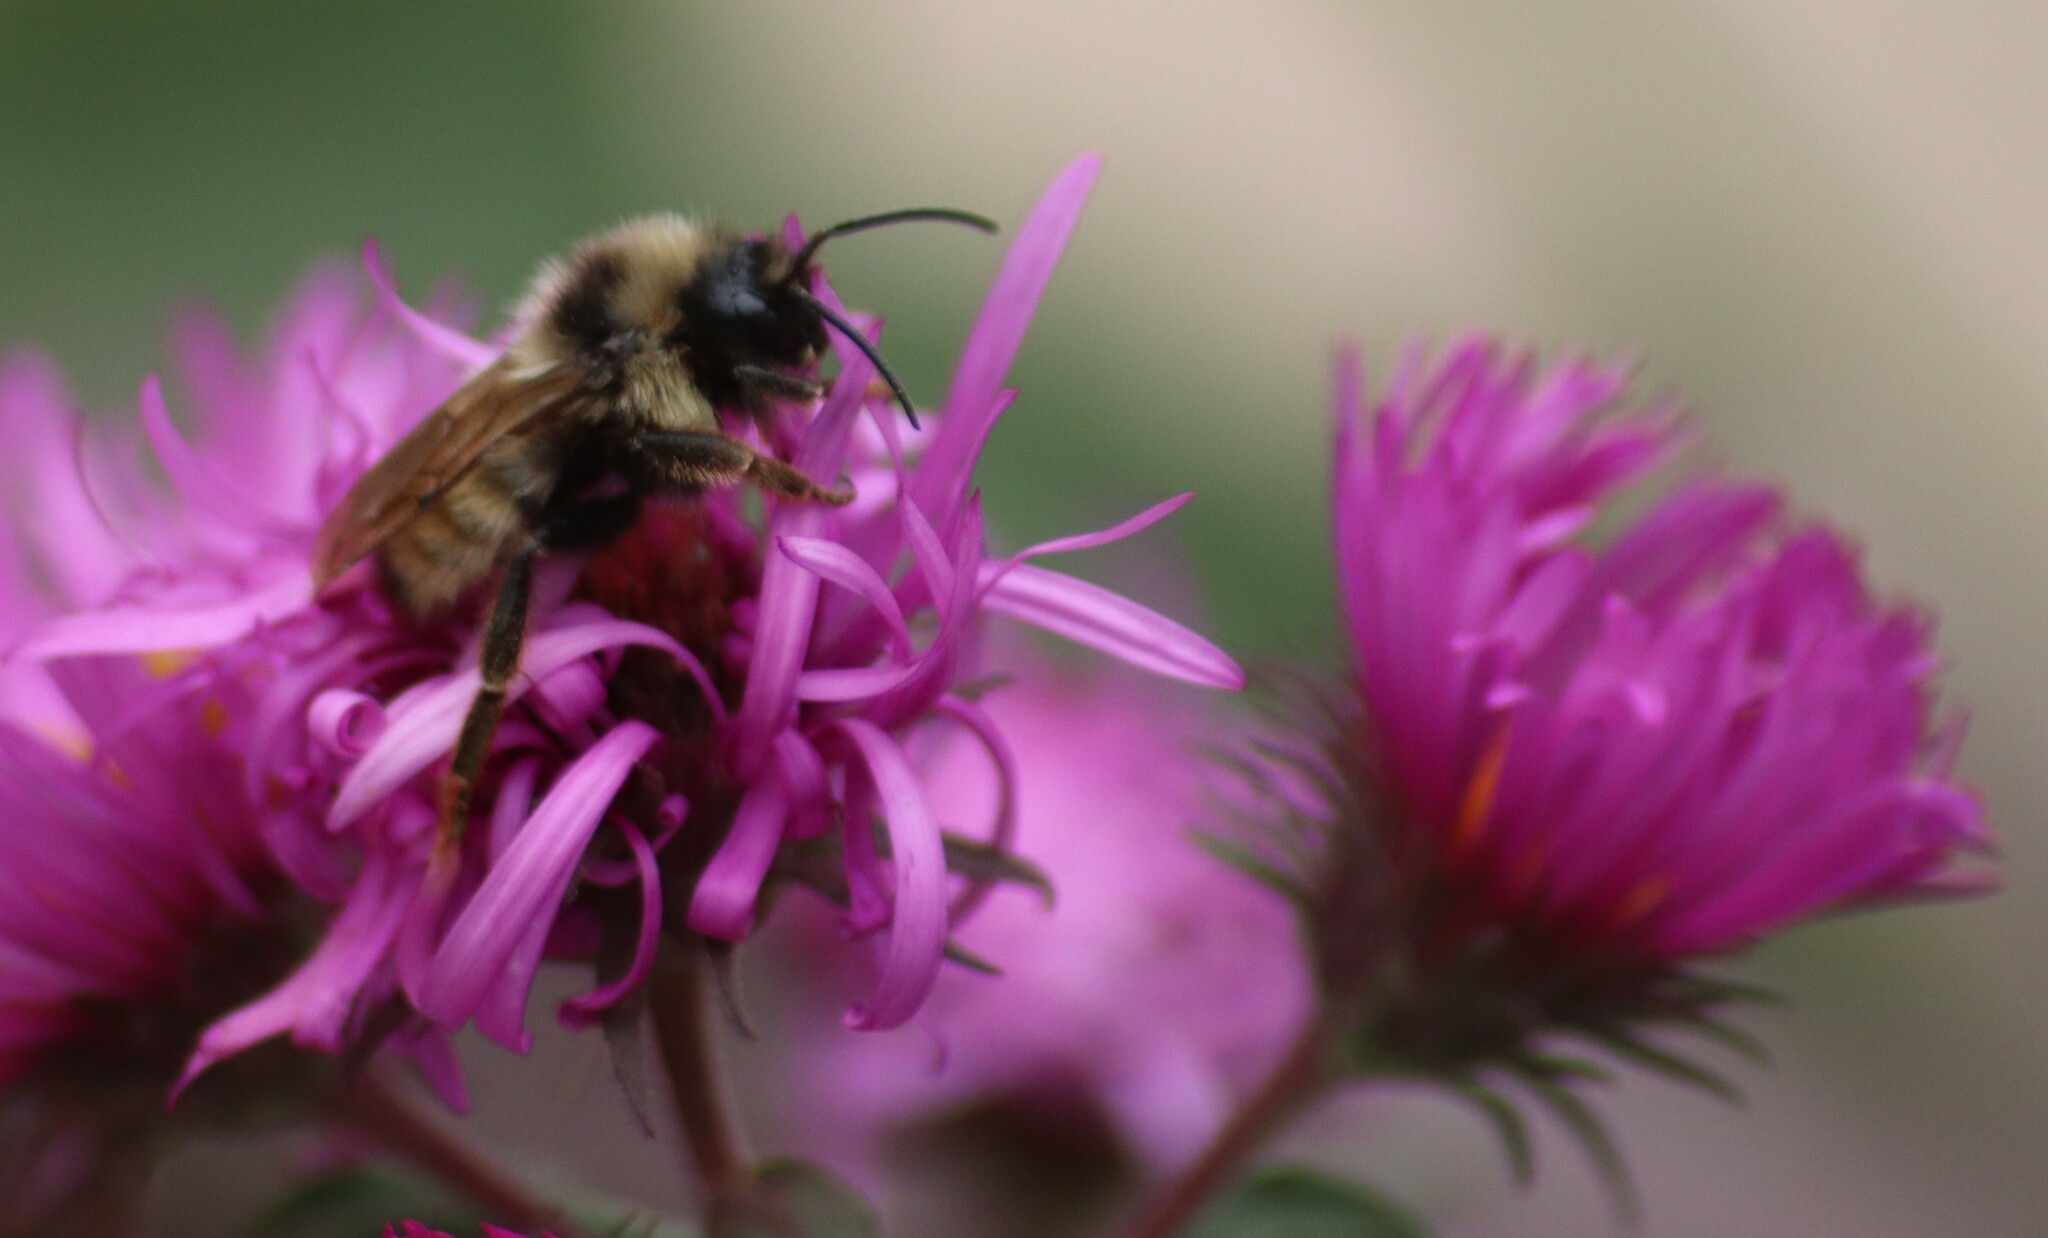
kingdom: Animalia
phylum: Arthropoda
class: Insecta
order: Hymenoptera
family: Apidae
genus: Bombus
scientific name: Bombus insularis
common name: Indiscriminate cuckoo bumble bee
